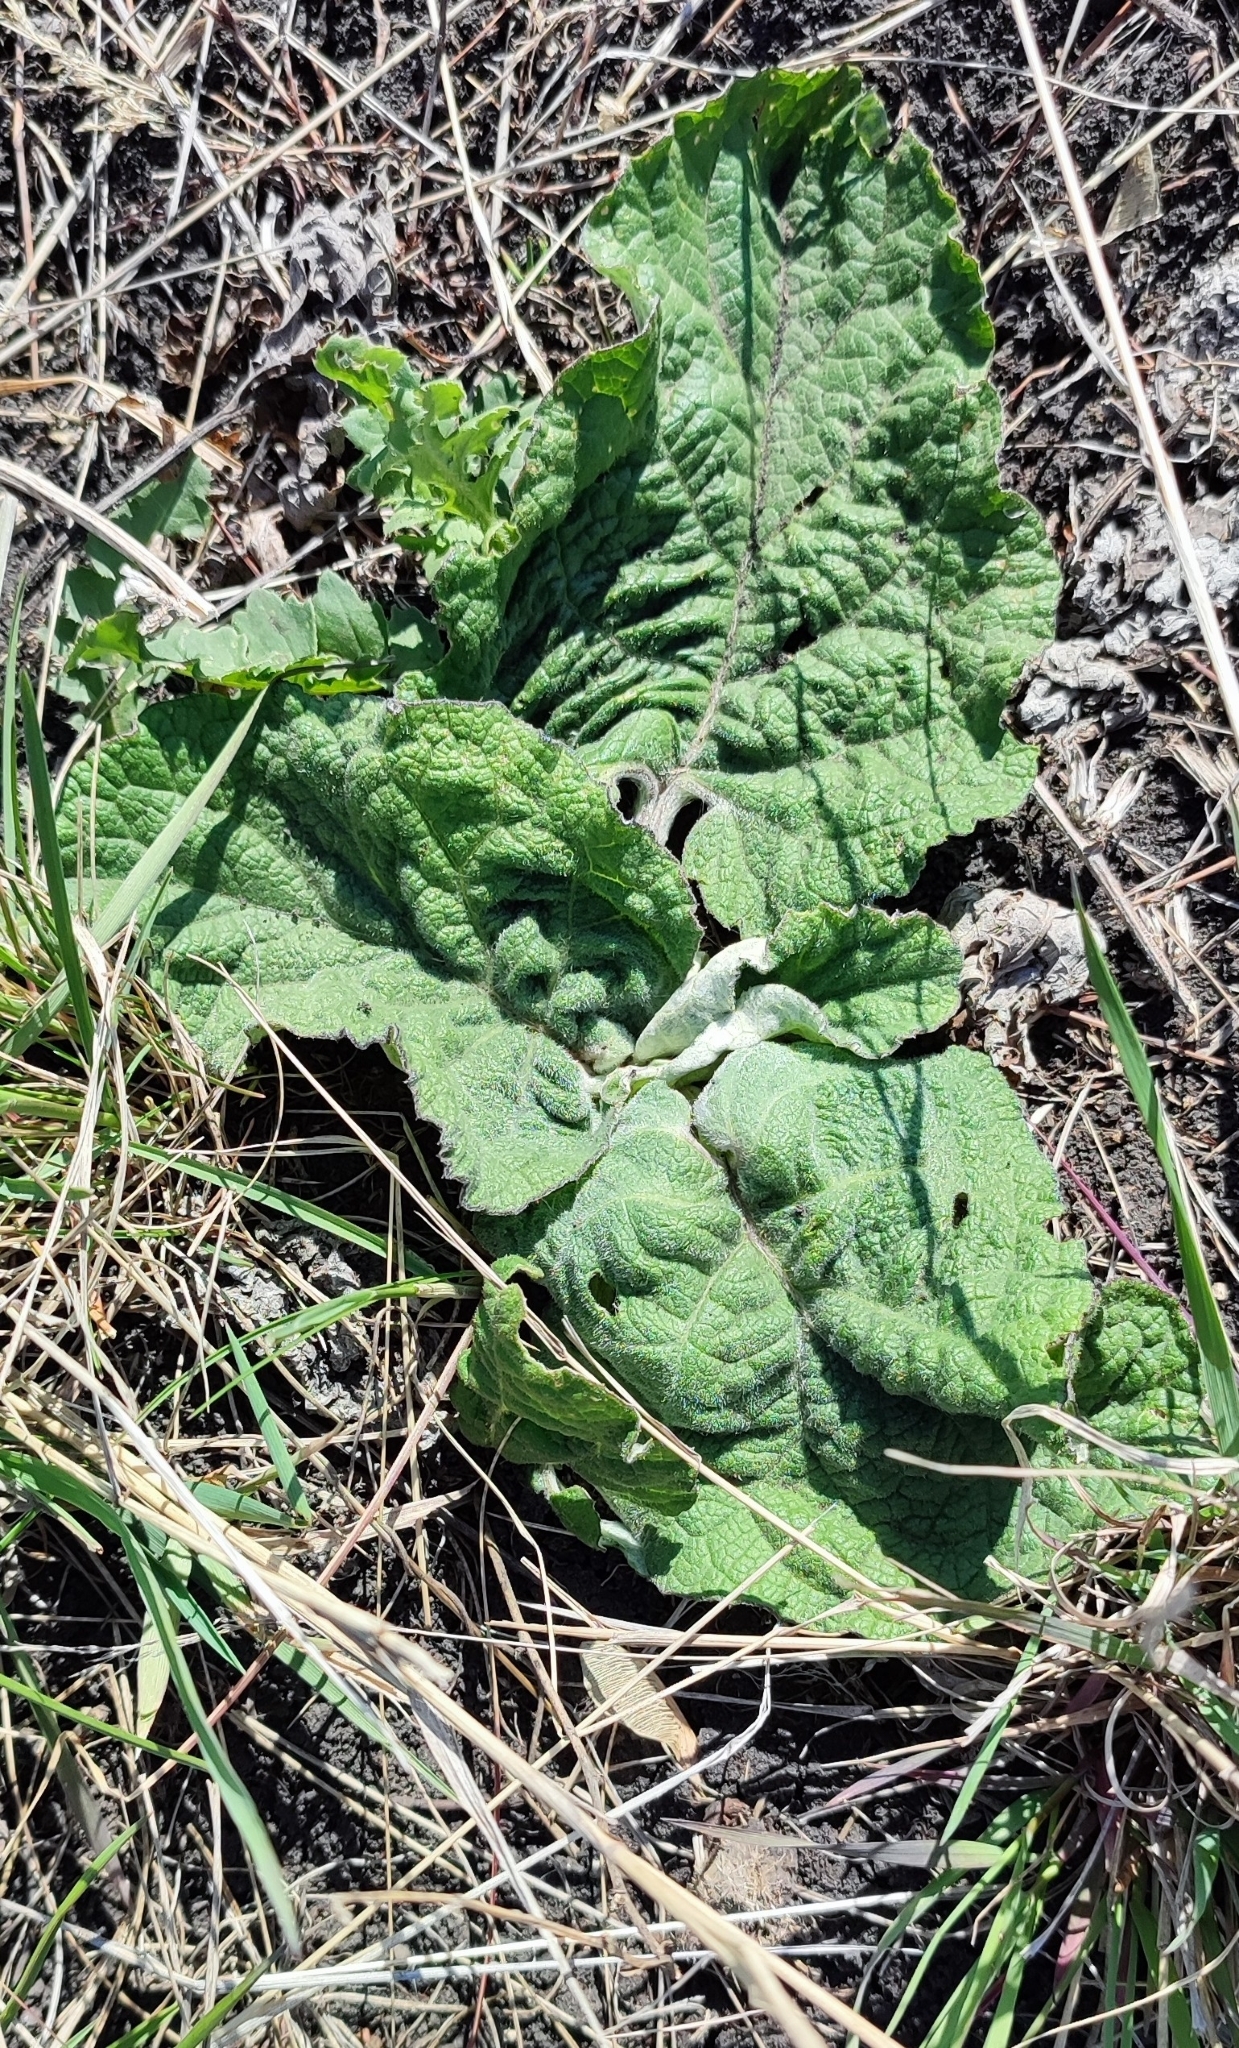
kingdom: Plantae
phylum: Tracheophyta
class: Magnoliopsida
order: Asterales
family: Asteraceae
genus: Arctium
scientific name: Arctium tomentosum
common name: Woolly burdock
